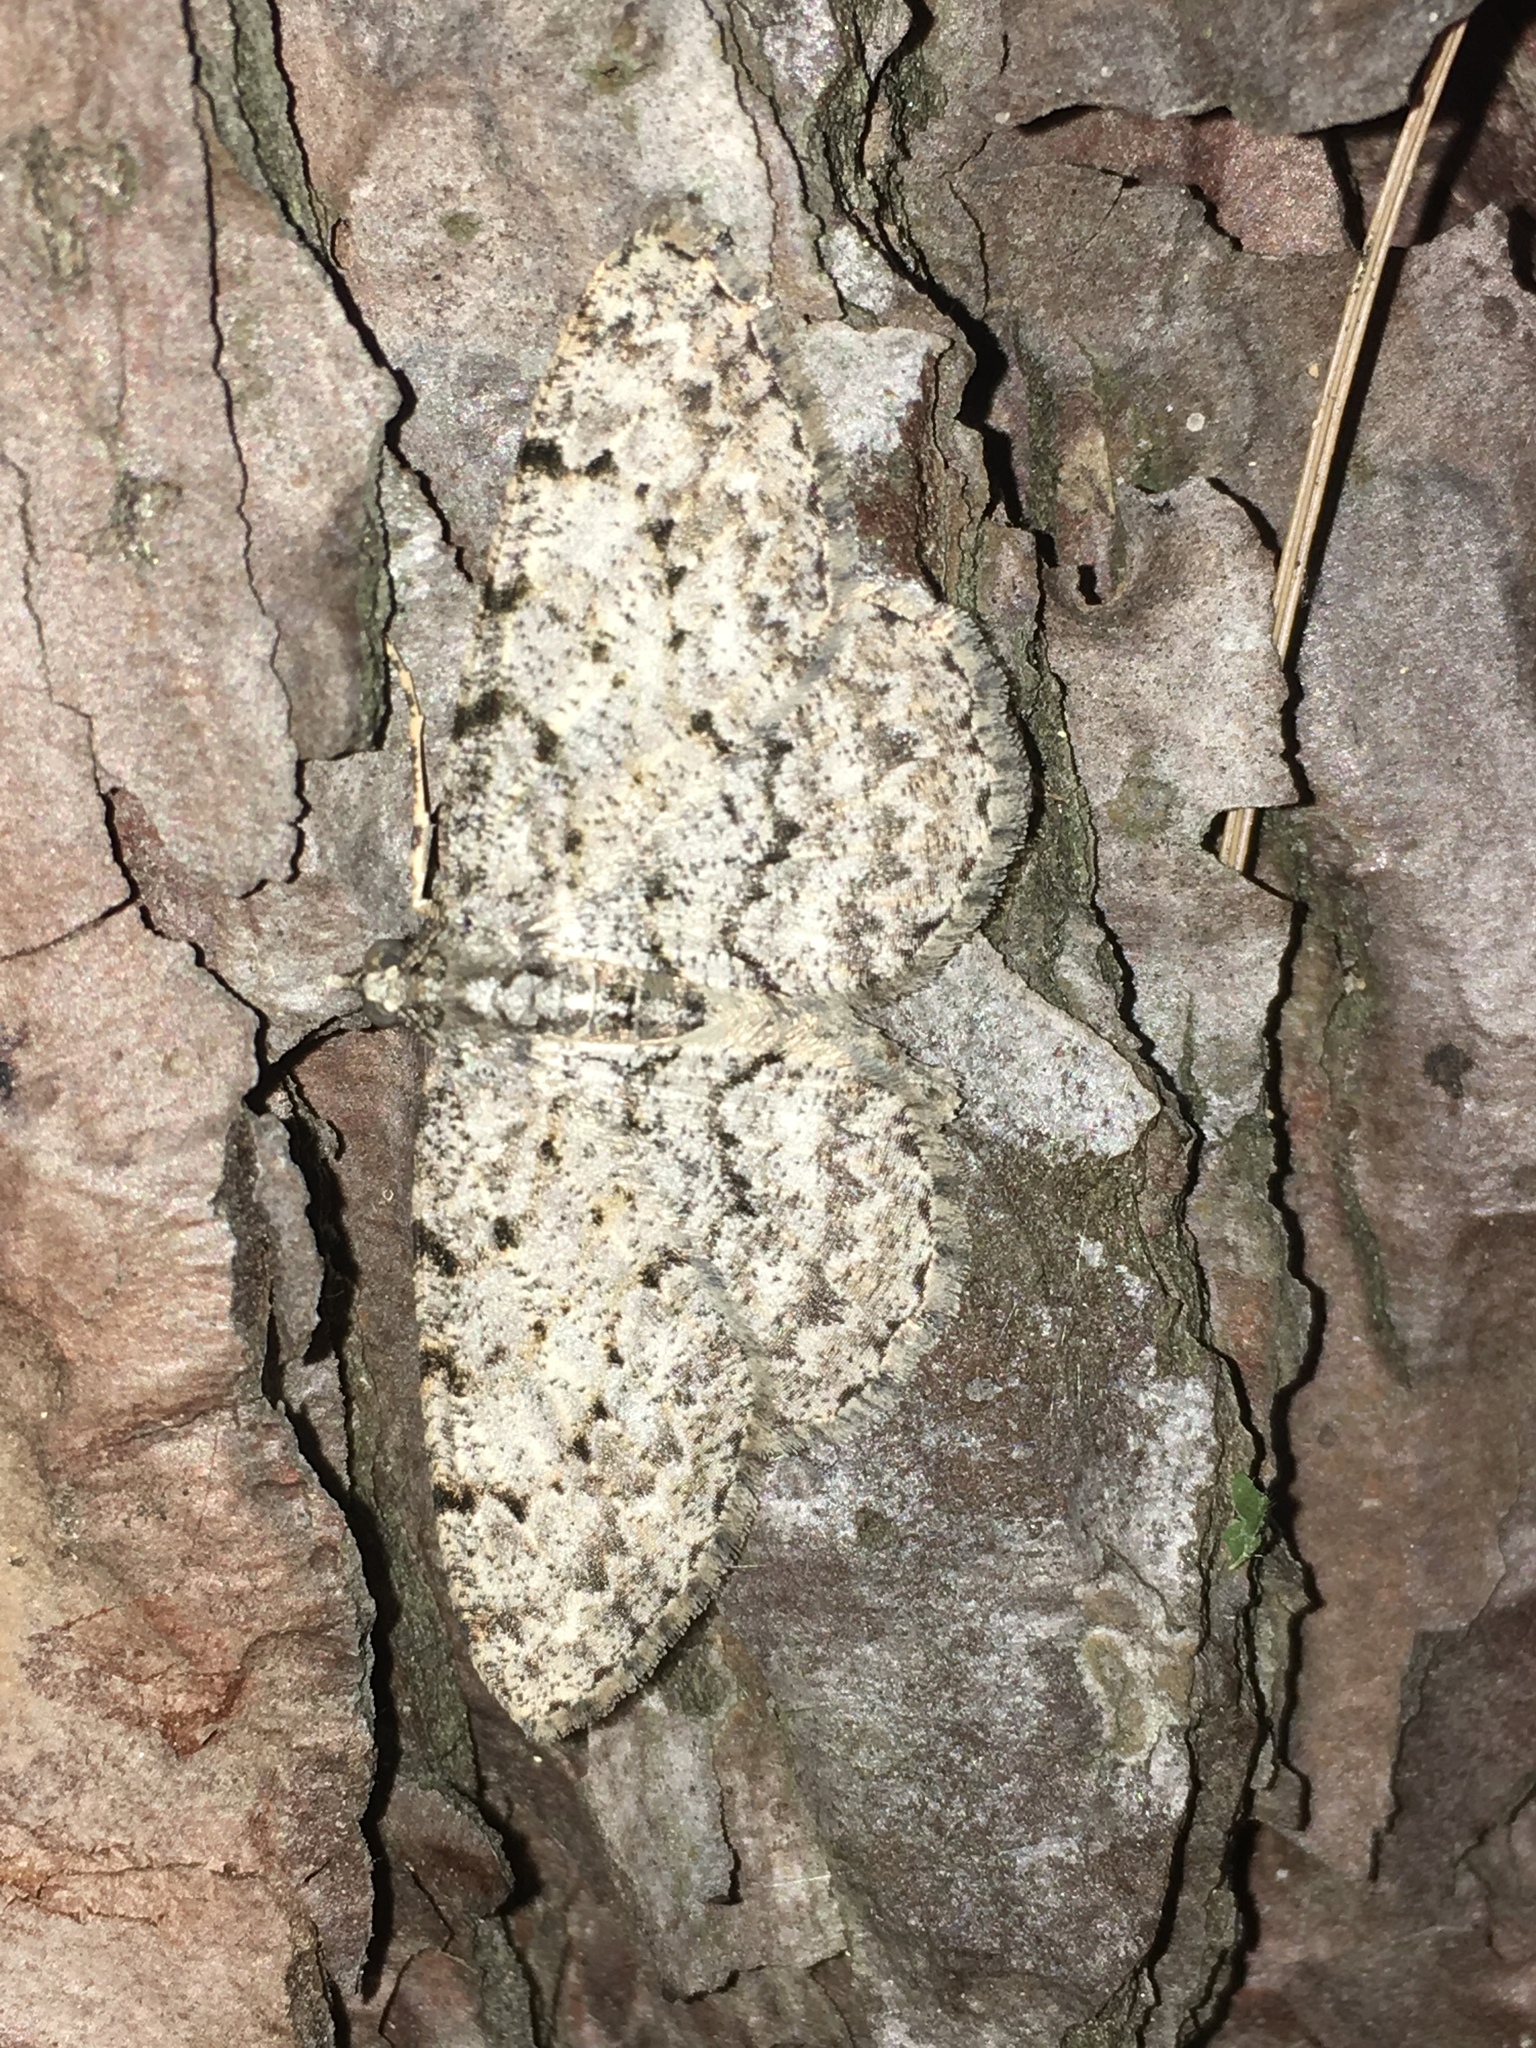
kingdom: Animalia
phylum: Arthropoda
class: Insecta
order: Lepidoptera
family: Geometridae
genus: Protoboarmia
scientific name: Protoboarmia porcelaria
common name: Porcelain gray
